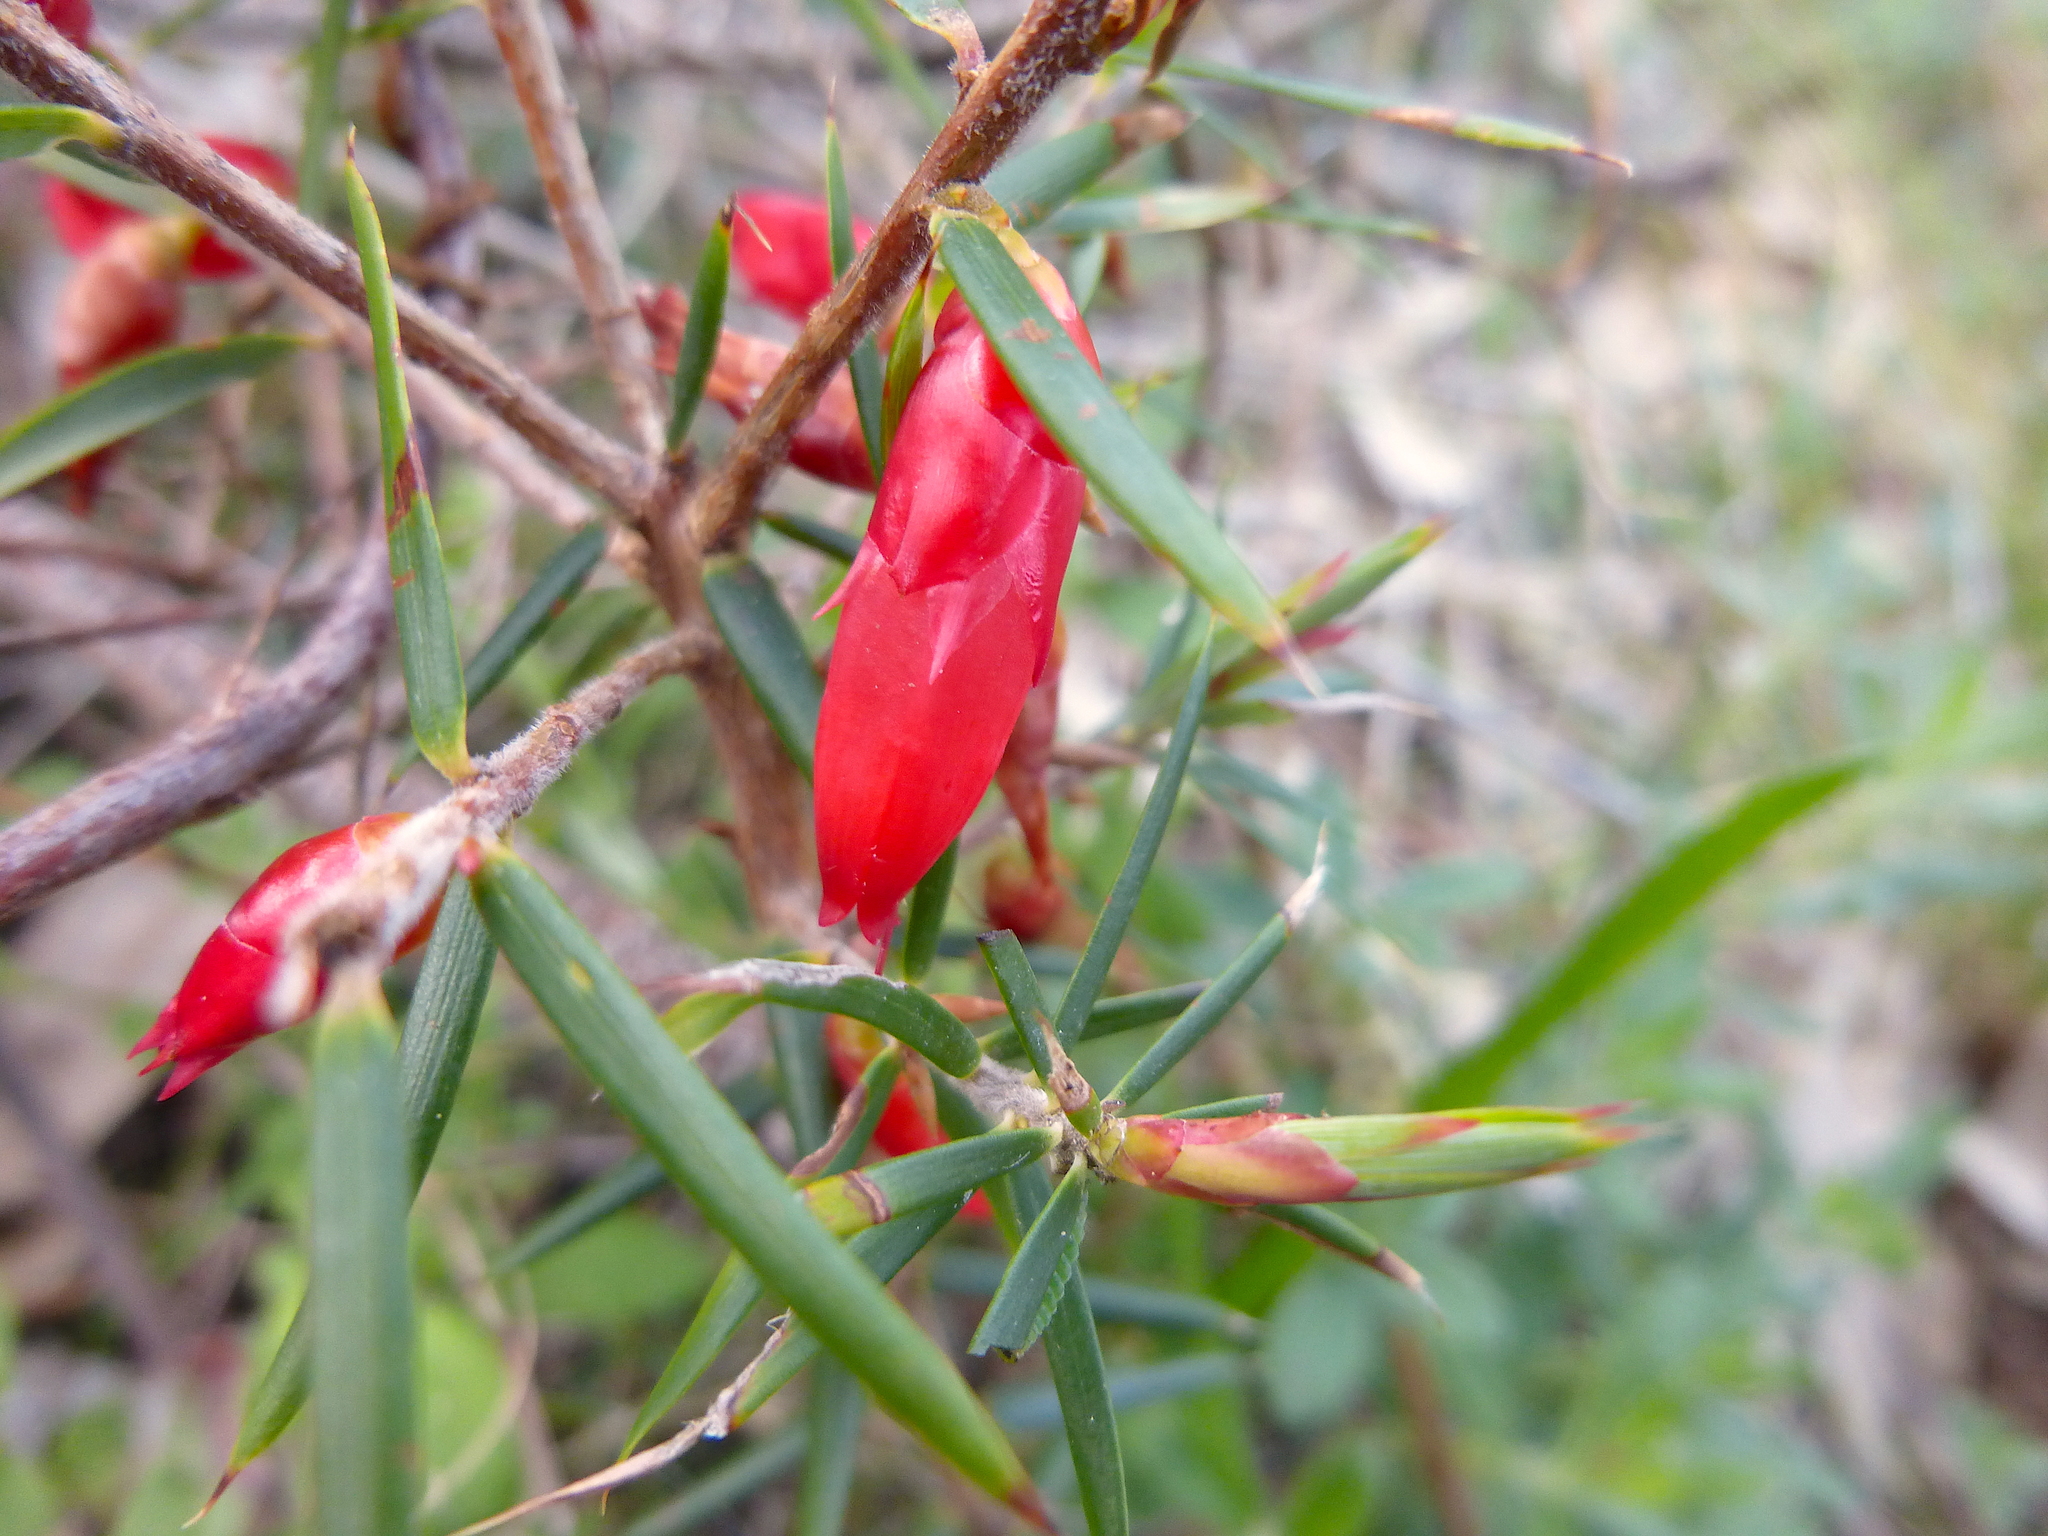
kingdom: Plantae
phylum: Tracheophyta
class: Magnoliopsida
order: Ericales
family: Ericaceae
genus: Stenanthera
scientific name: Stenanthera conostephioides
